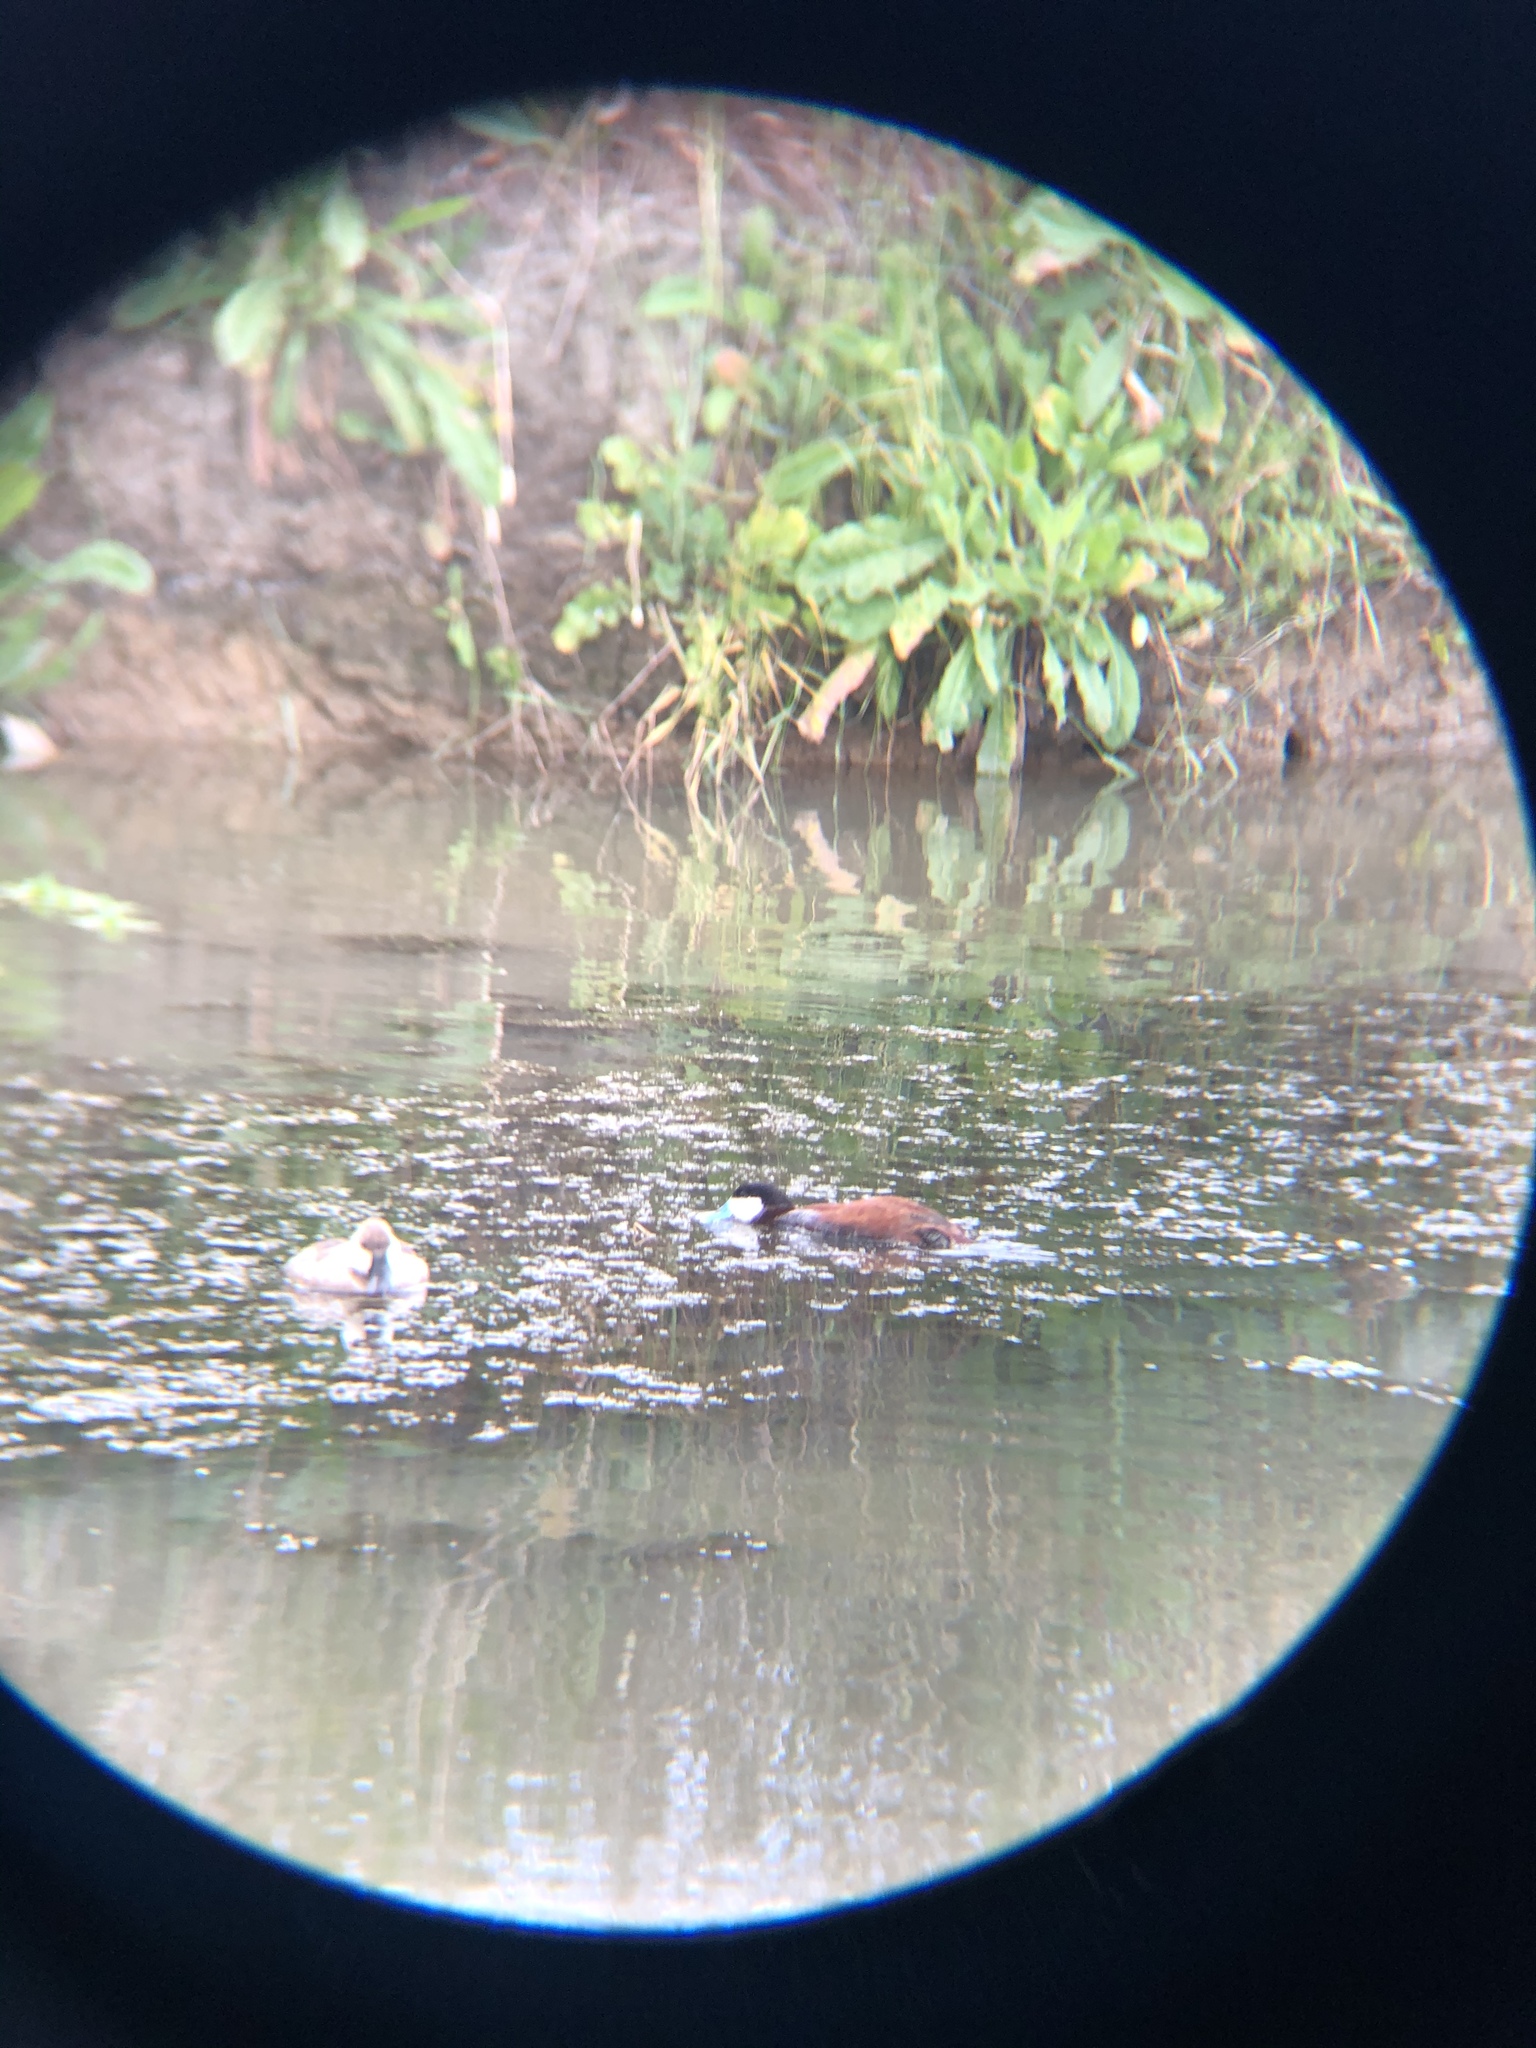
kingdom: Animalia
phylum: Chordata
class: Aves
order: Anseriformes
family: Anatidae
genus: Oxyura
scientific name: Oxyura jamaicensis
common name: Ruddy duck
